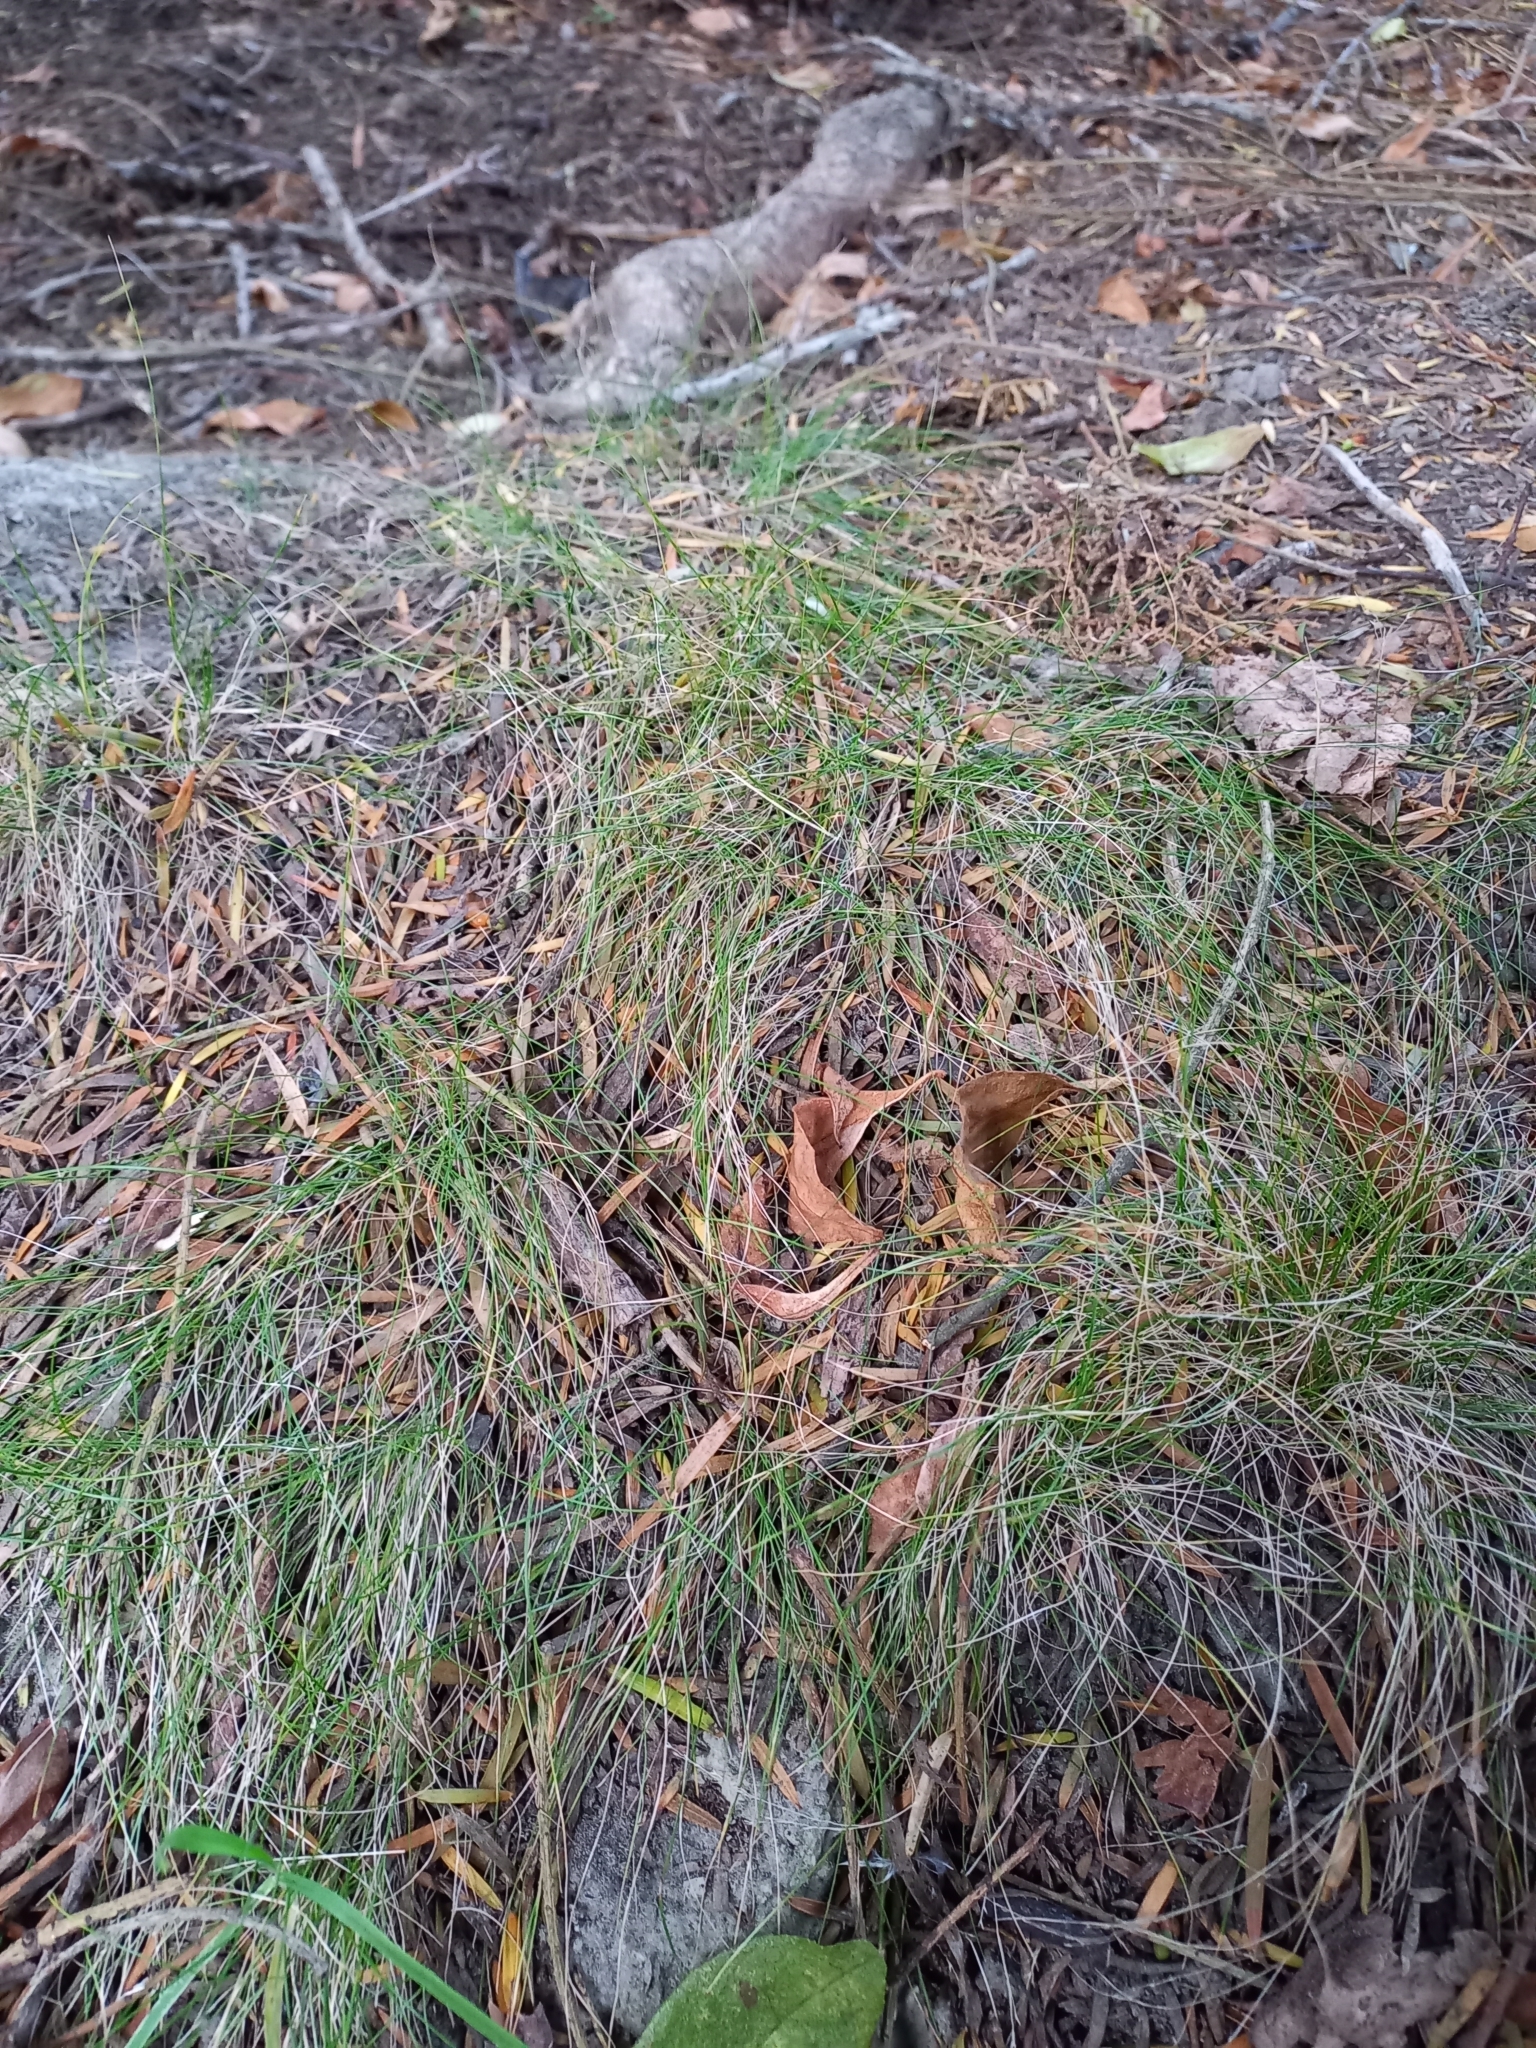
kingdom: Plantae
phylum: Tracheophyta
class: Liliopsida
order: Poales
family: Poaceae
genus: Poa
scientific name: Poa imbecilla
